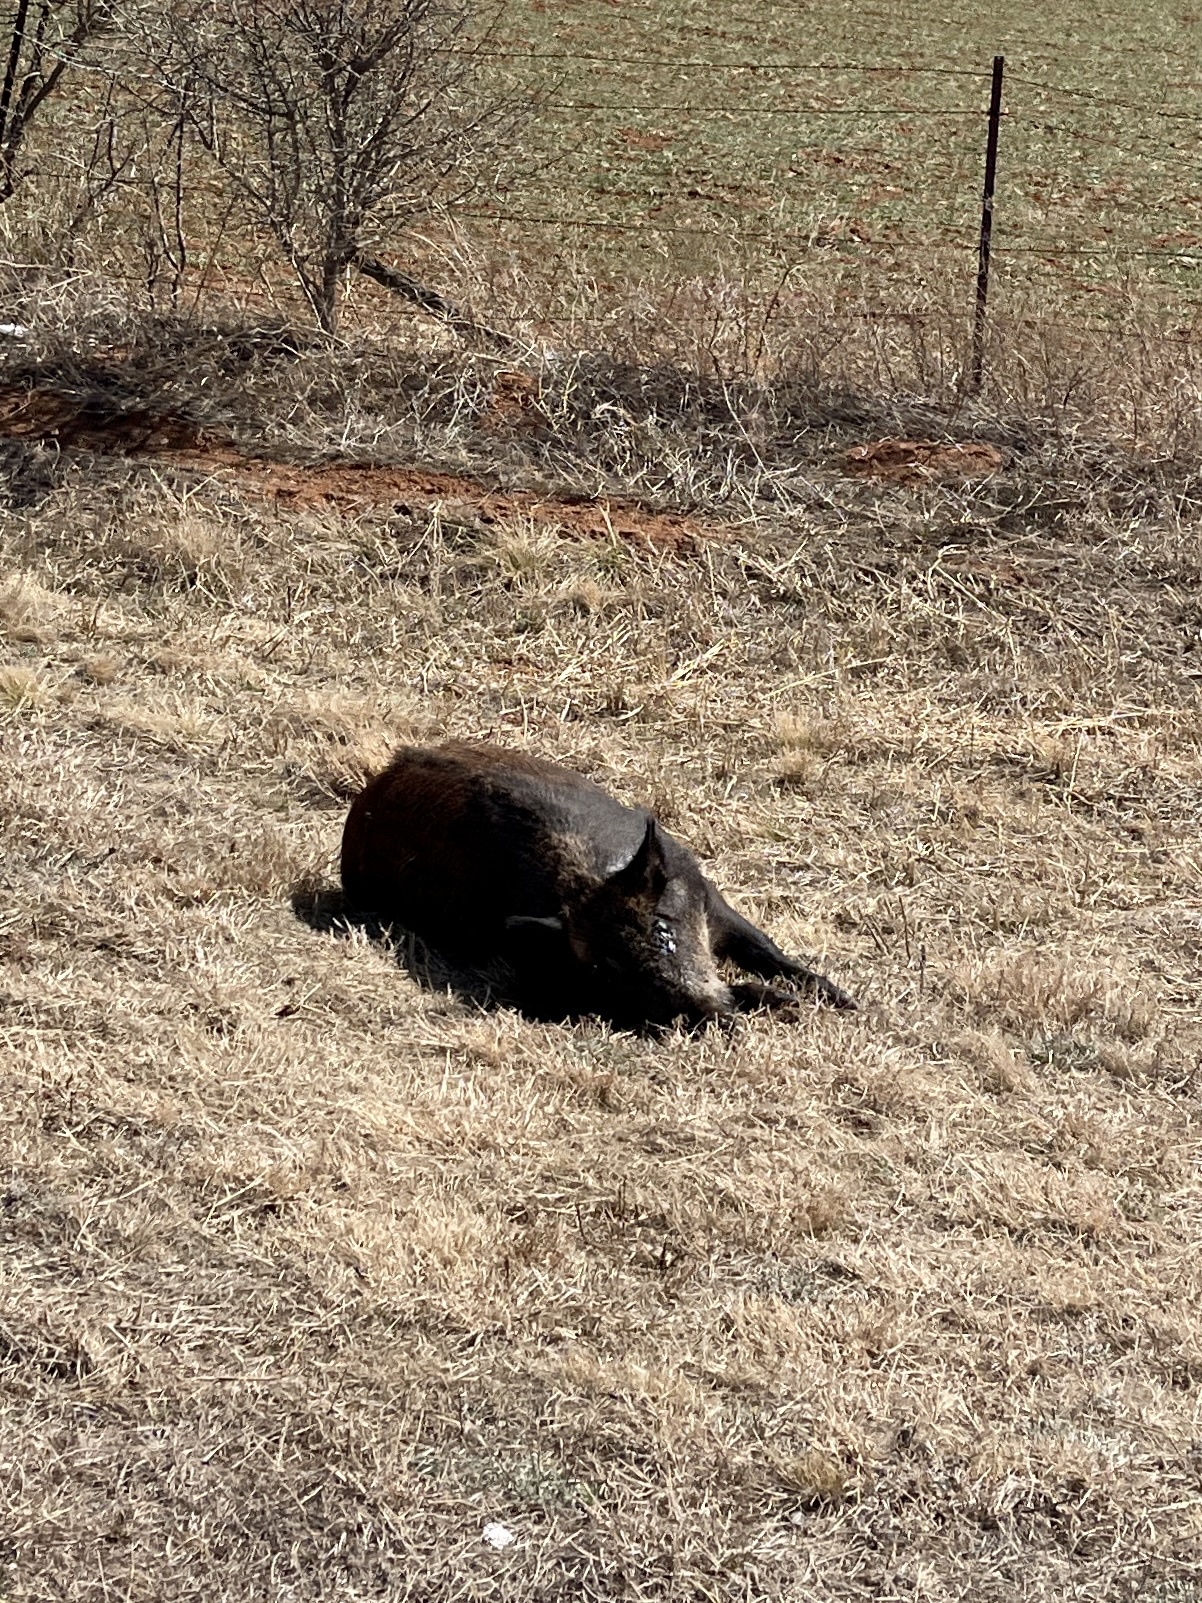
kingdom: Animalia
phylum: Chordata
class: Mammalia
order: Artiodactyla
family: Suidae
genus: Sus
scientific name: Sus scrofa
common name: Wild boar
